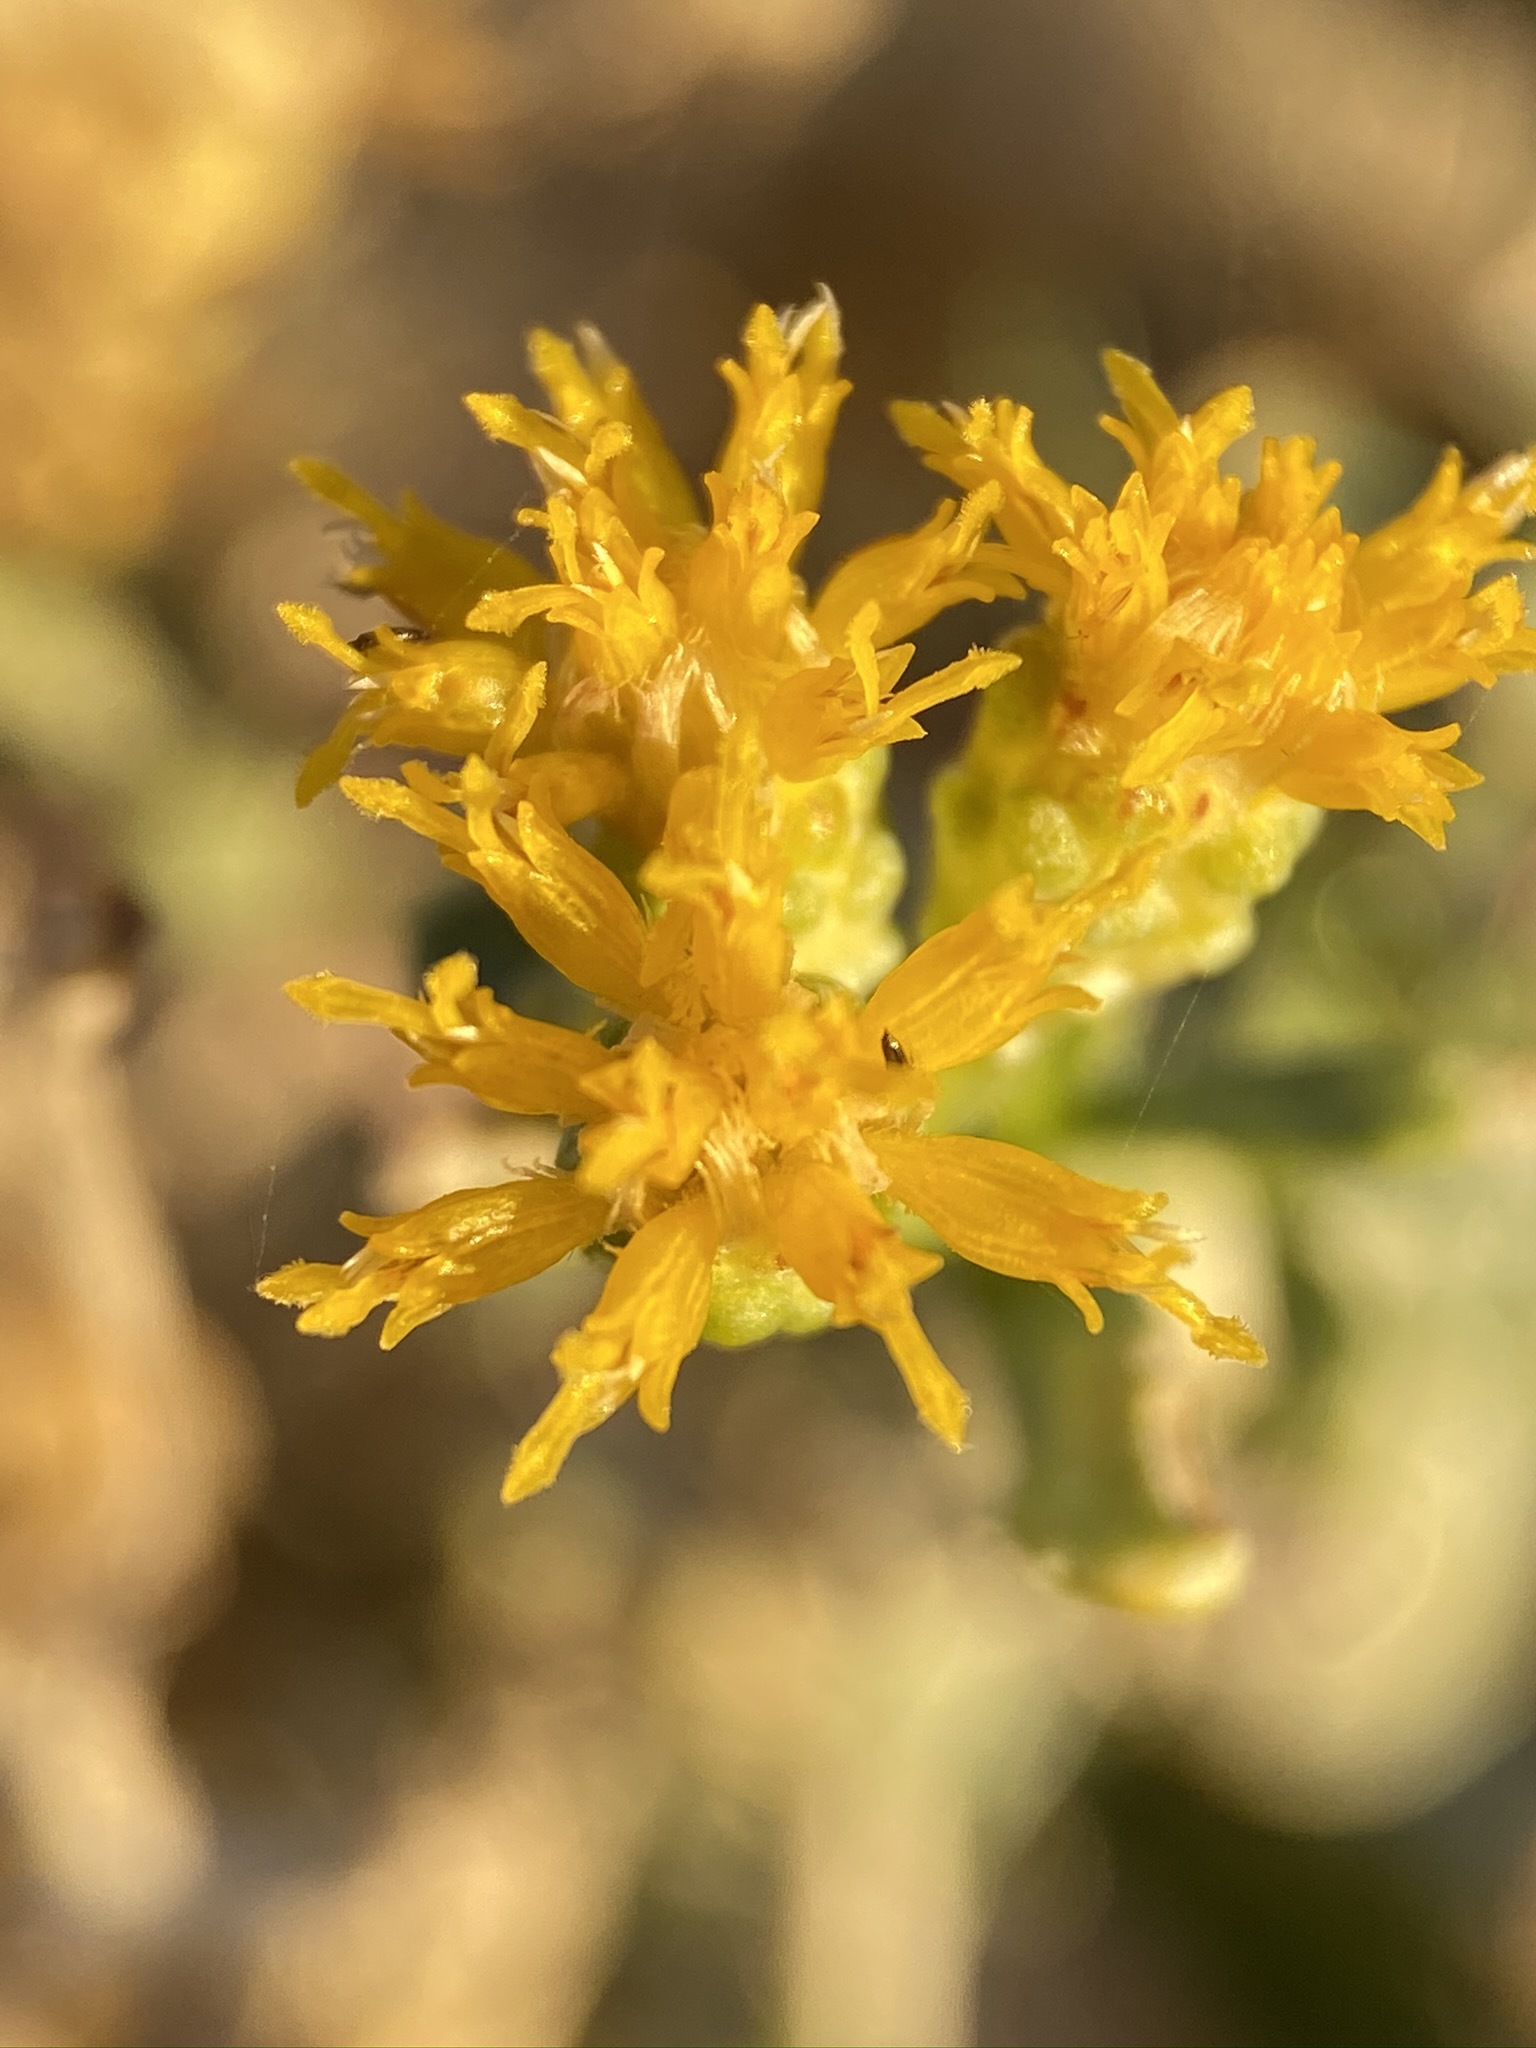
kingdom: Plantae
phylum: Tracheophyta
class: Magnoliopsida
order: Asterales
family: Asteraceae
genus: Isocoma
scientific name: Isocoma acradenia
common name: Alkali jimmyweed
